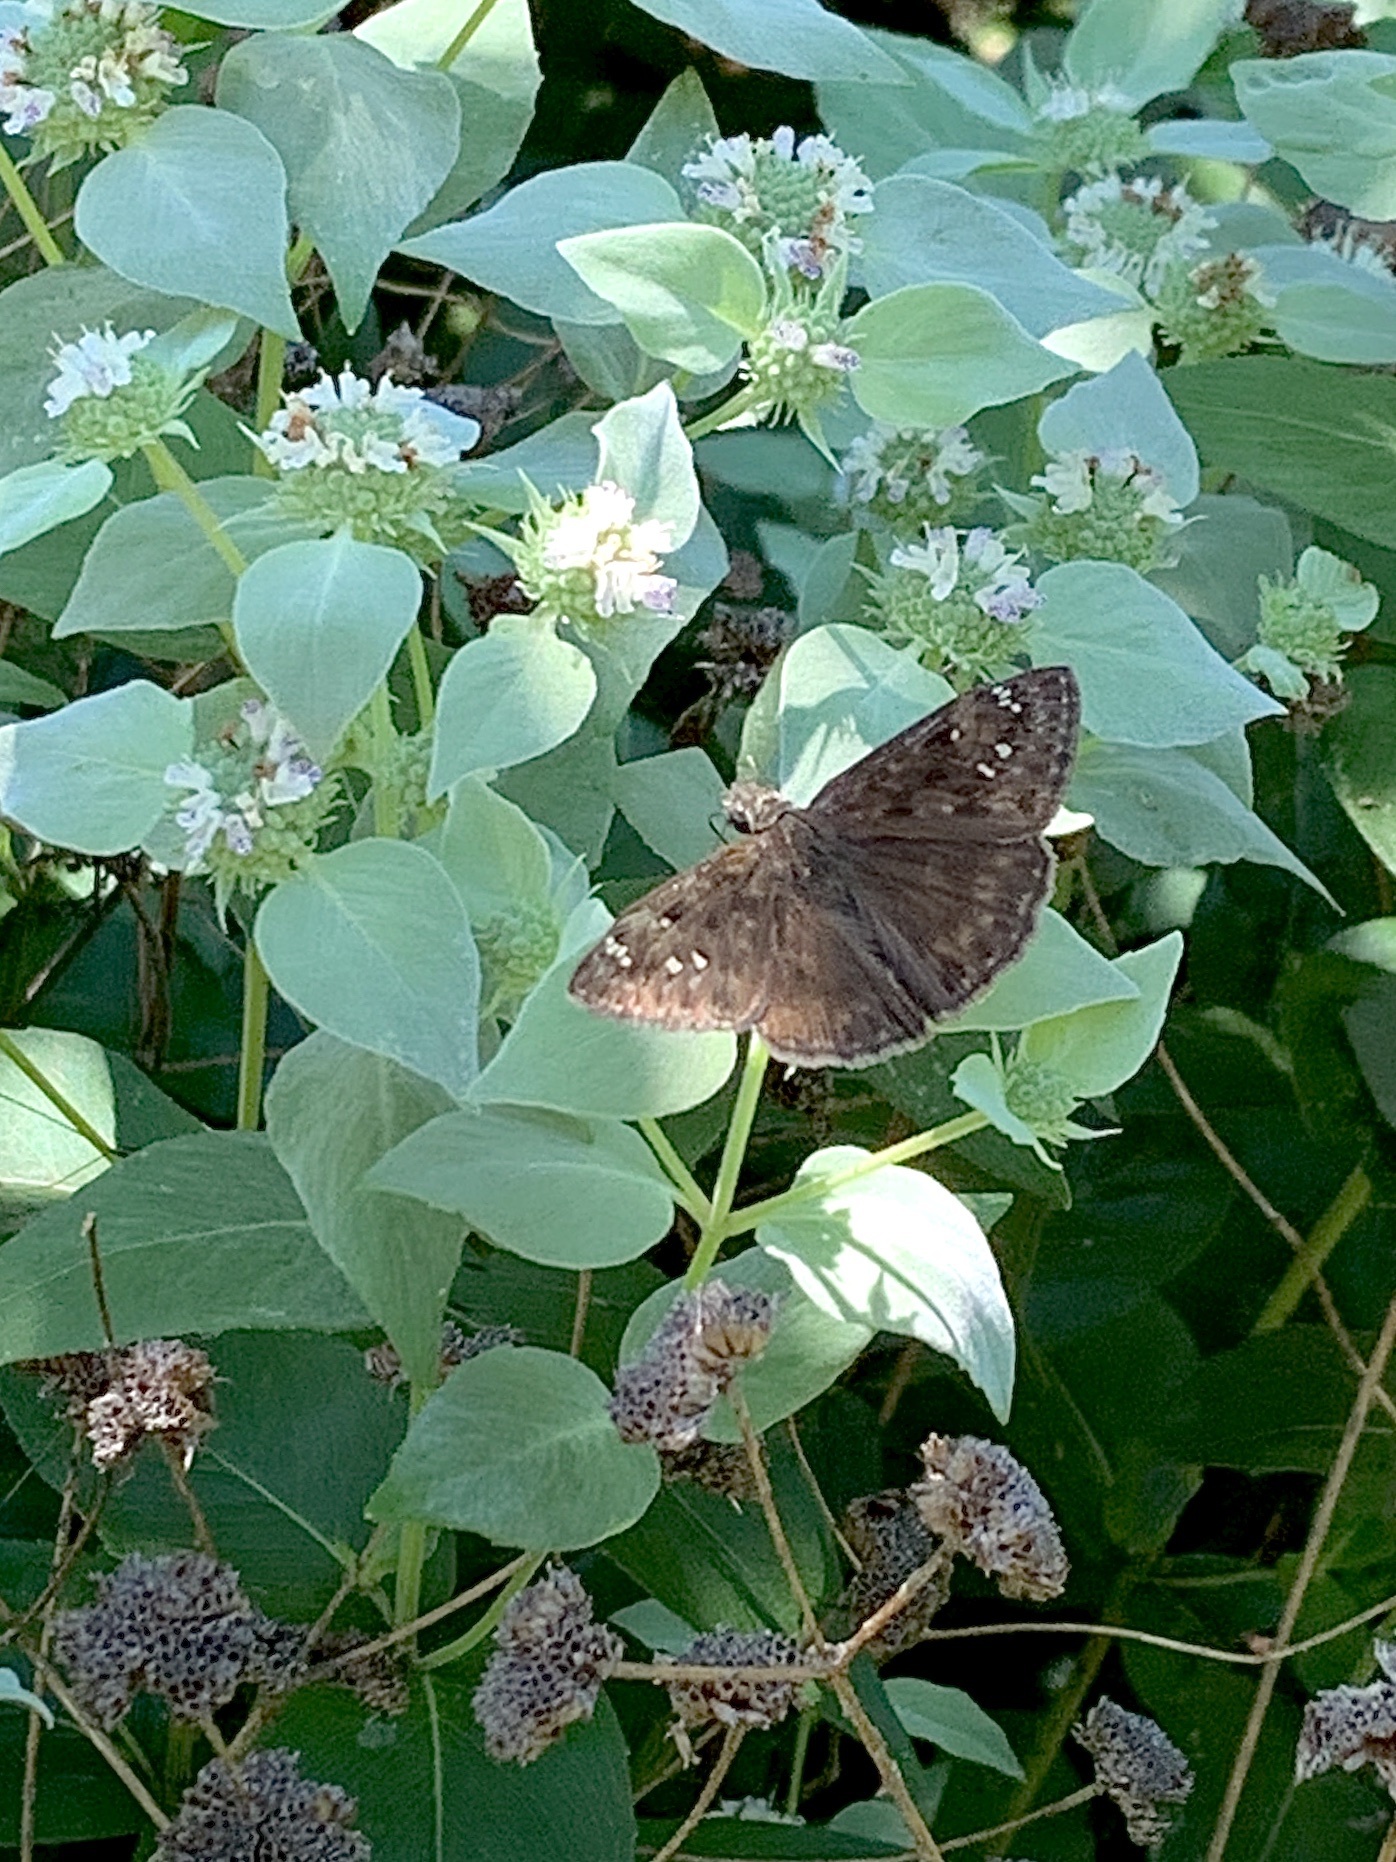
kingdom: Animalia
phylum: Arthropoda
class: Insecta
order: Lepidoptera
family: Hesperiidae
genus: Erynnis
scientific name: Erynnis horatius
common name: Horace's duskywing
